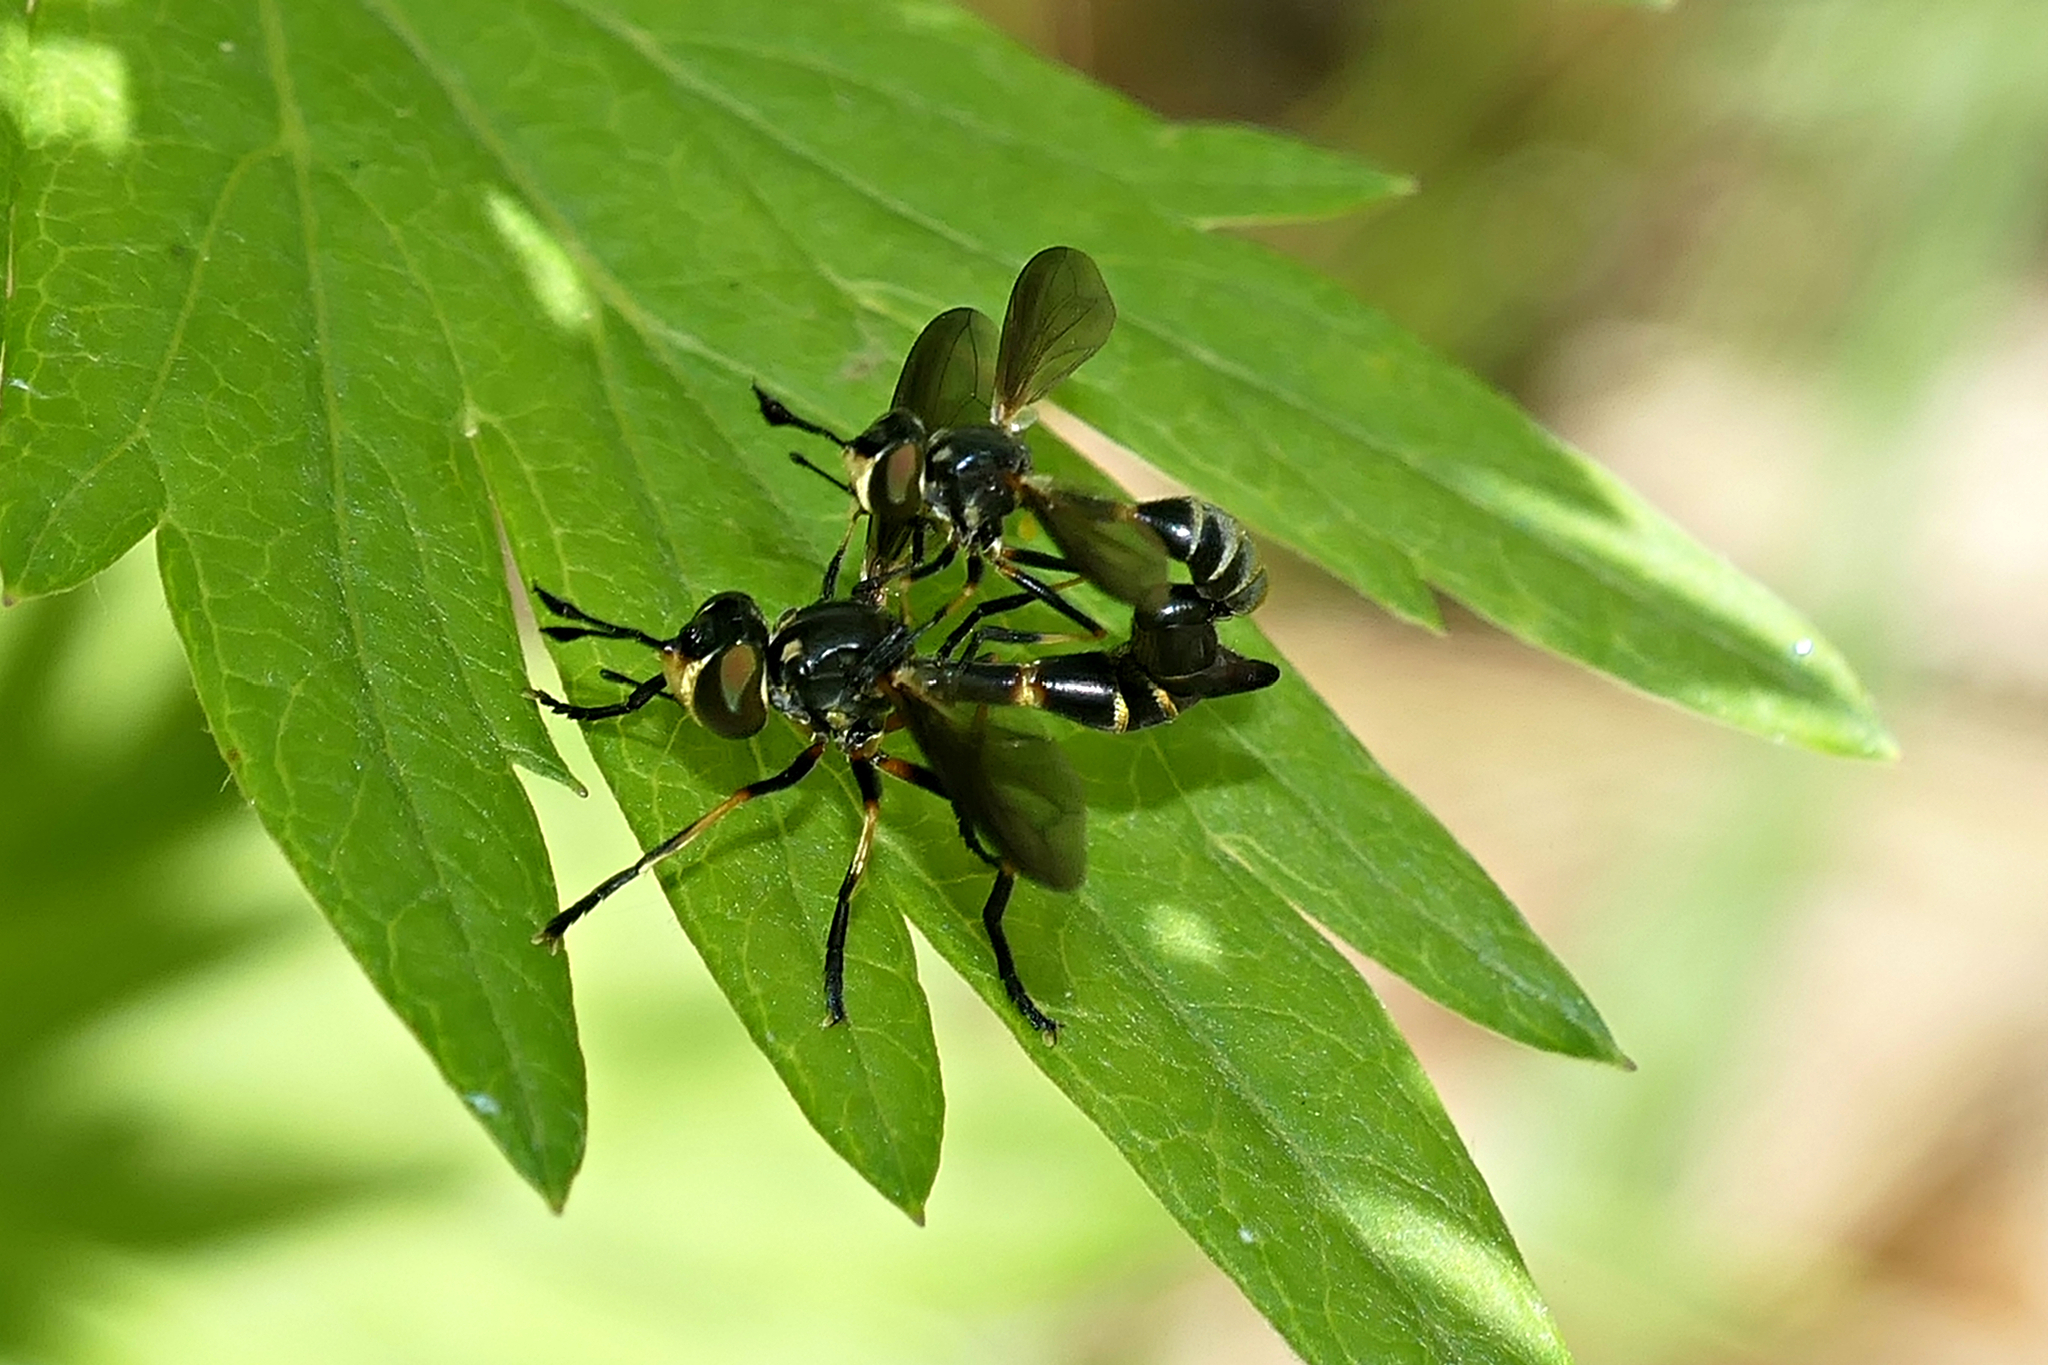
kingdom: Animalia
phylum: Arthropoda
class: Insecta
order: Diptera
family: Conopidae
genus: Physoconops
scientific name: Physoconops obscuripennis
